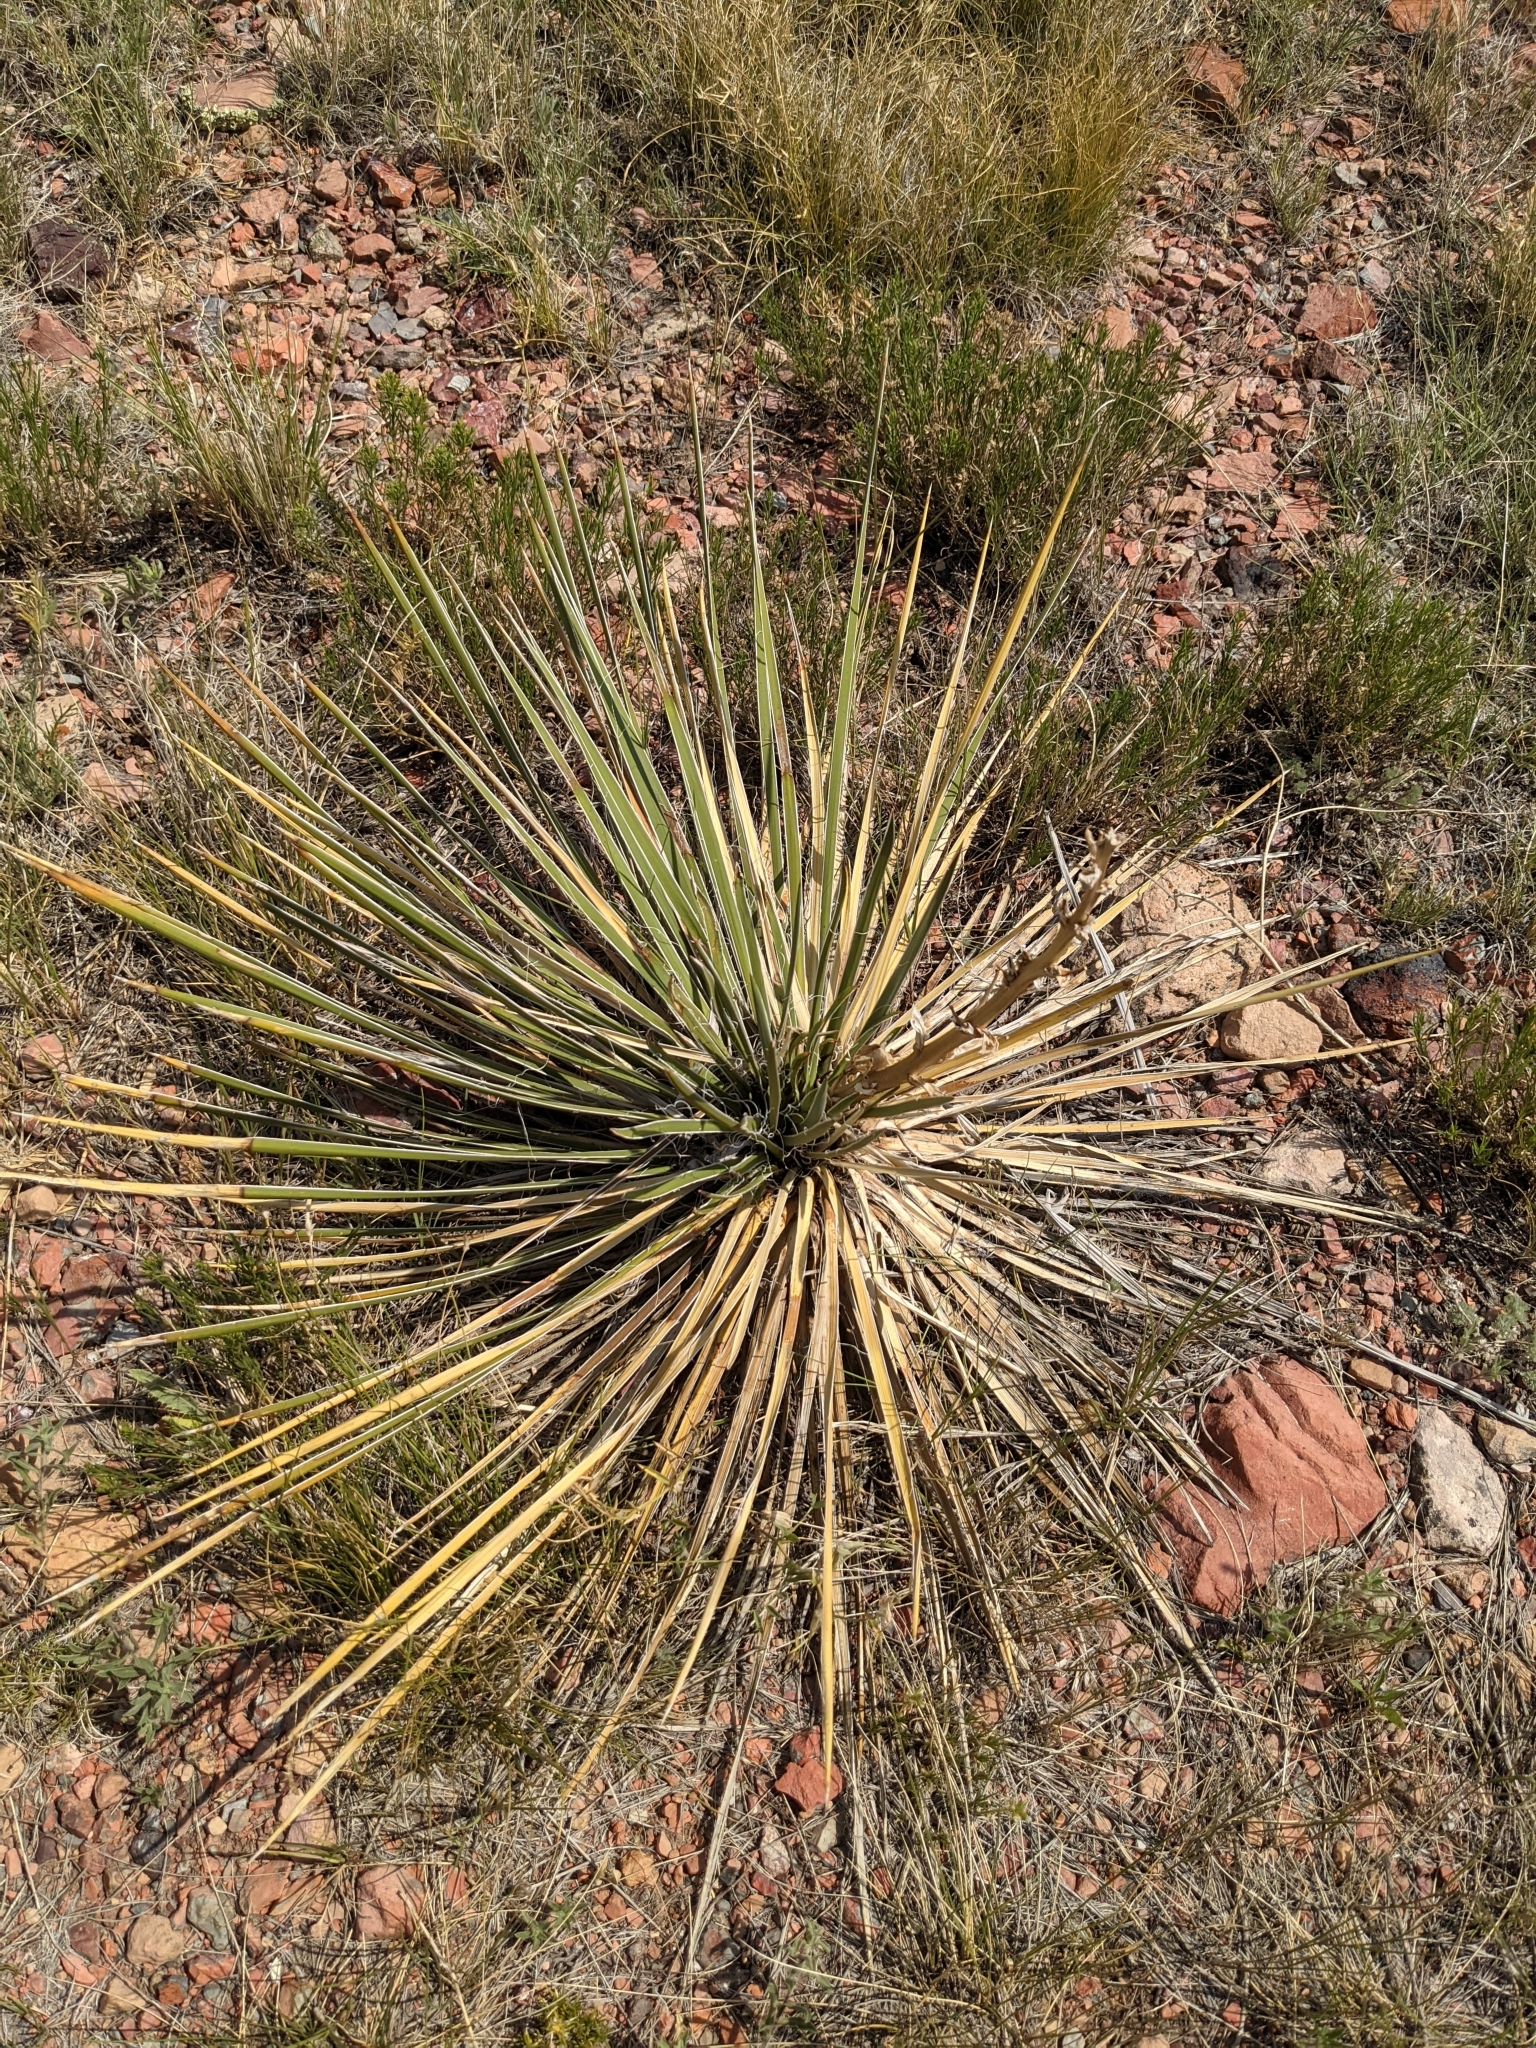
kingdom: Plantae
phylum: Tracheophyta
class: Liliopsida
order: Asparagales
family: Asparagaceae
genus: Yucca
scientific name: Yucca glauca
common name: Great plains yucca
